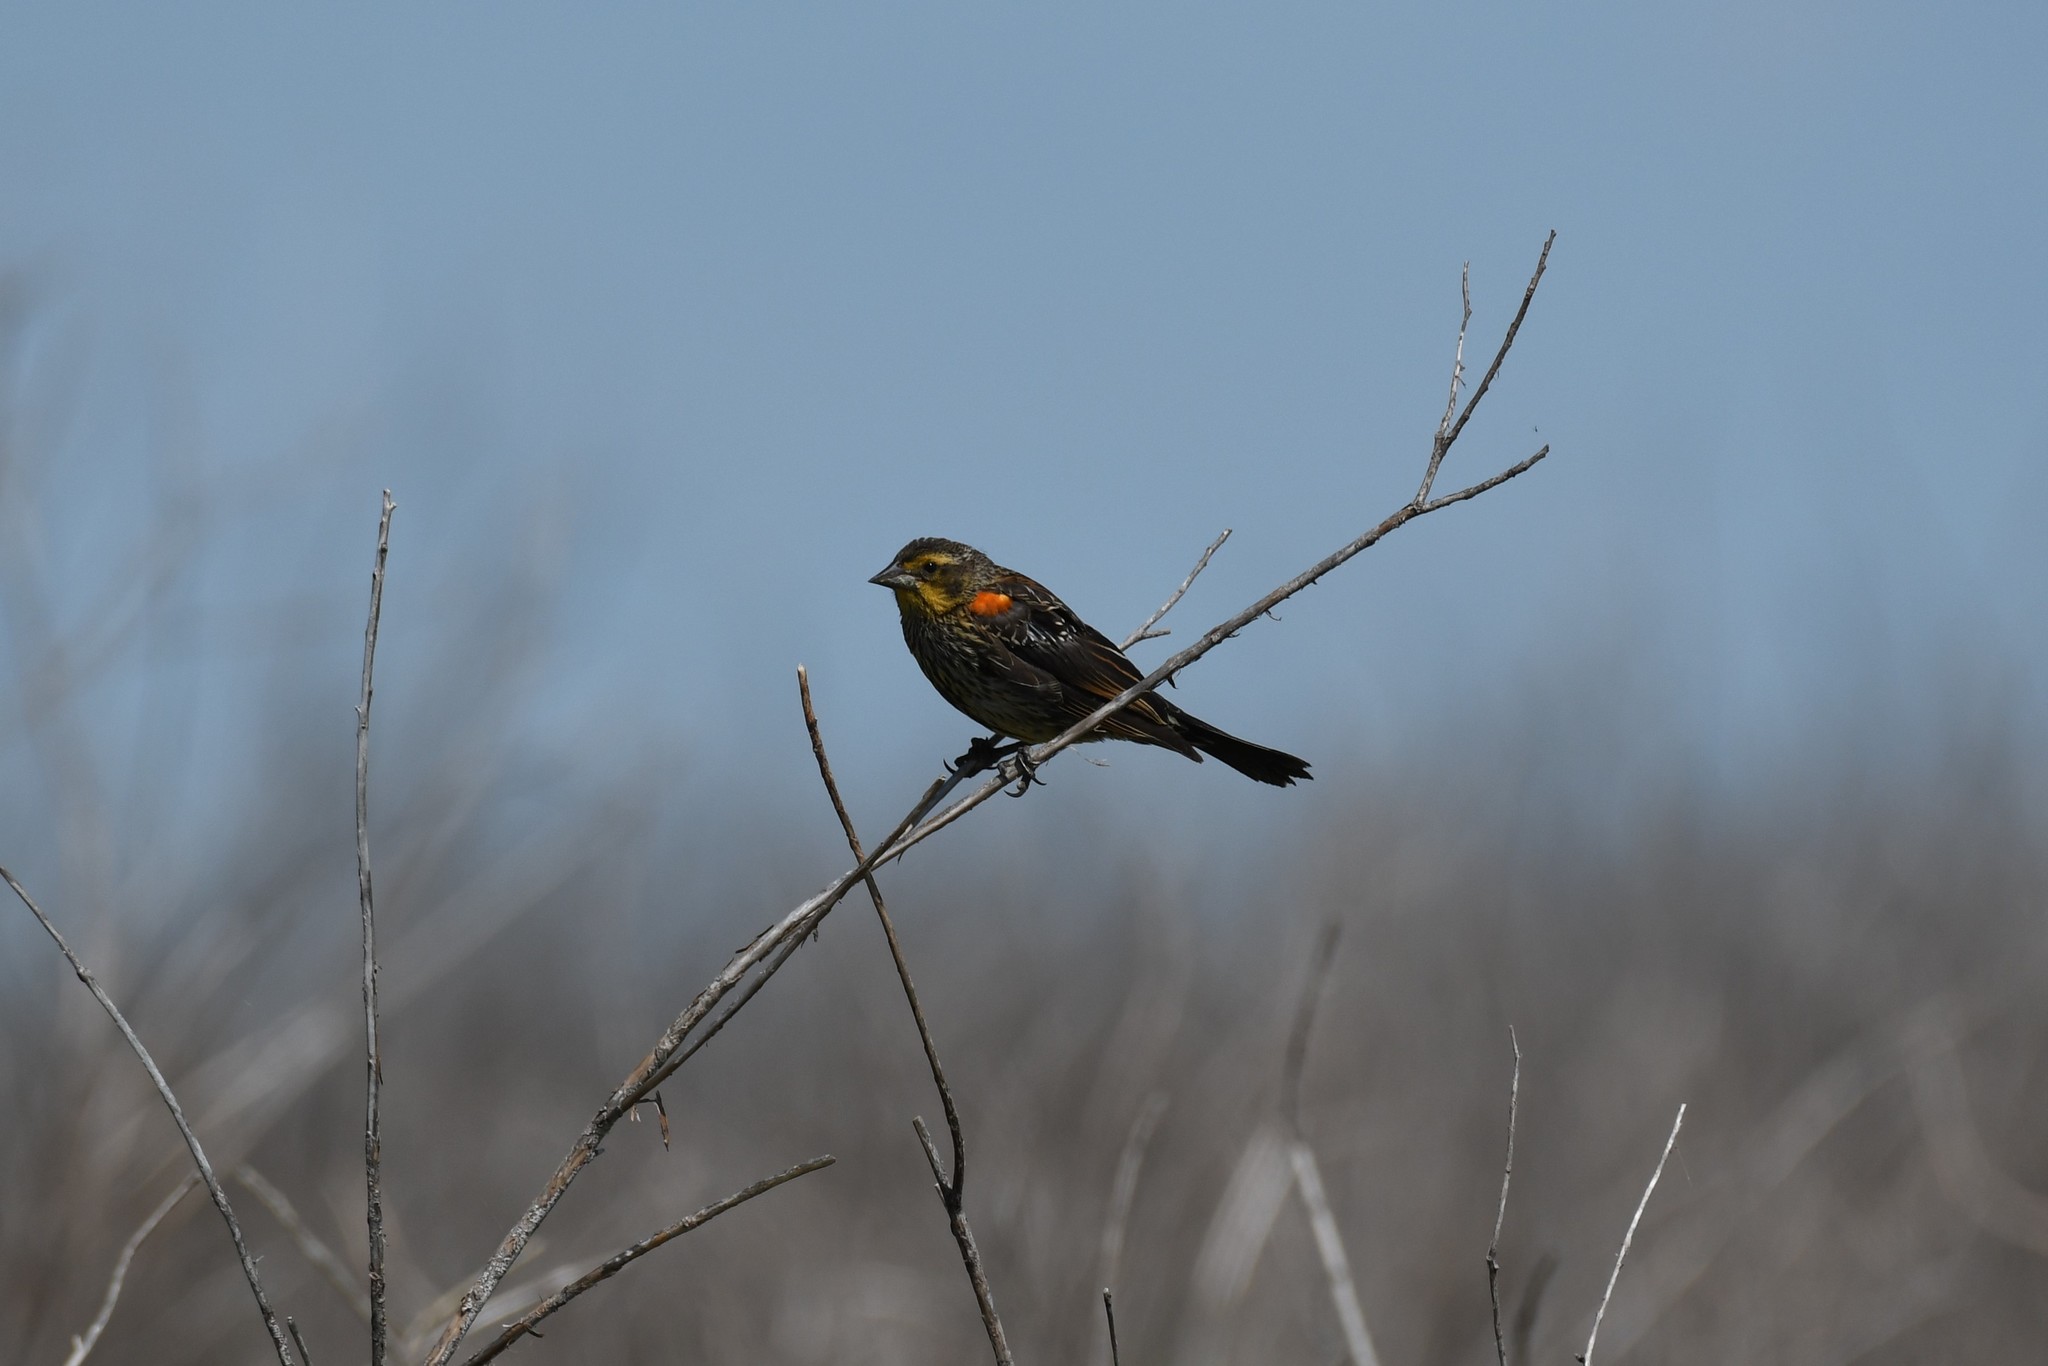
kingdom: Animalia
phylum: Chordata
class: Aves
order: Passeriformes
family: Icteridae
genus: Agelaius
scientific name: Agelaius phoeniceus
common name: Red-winged blackbird
